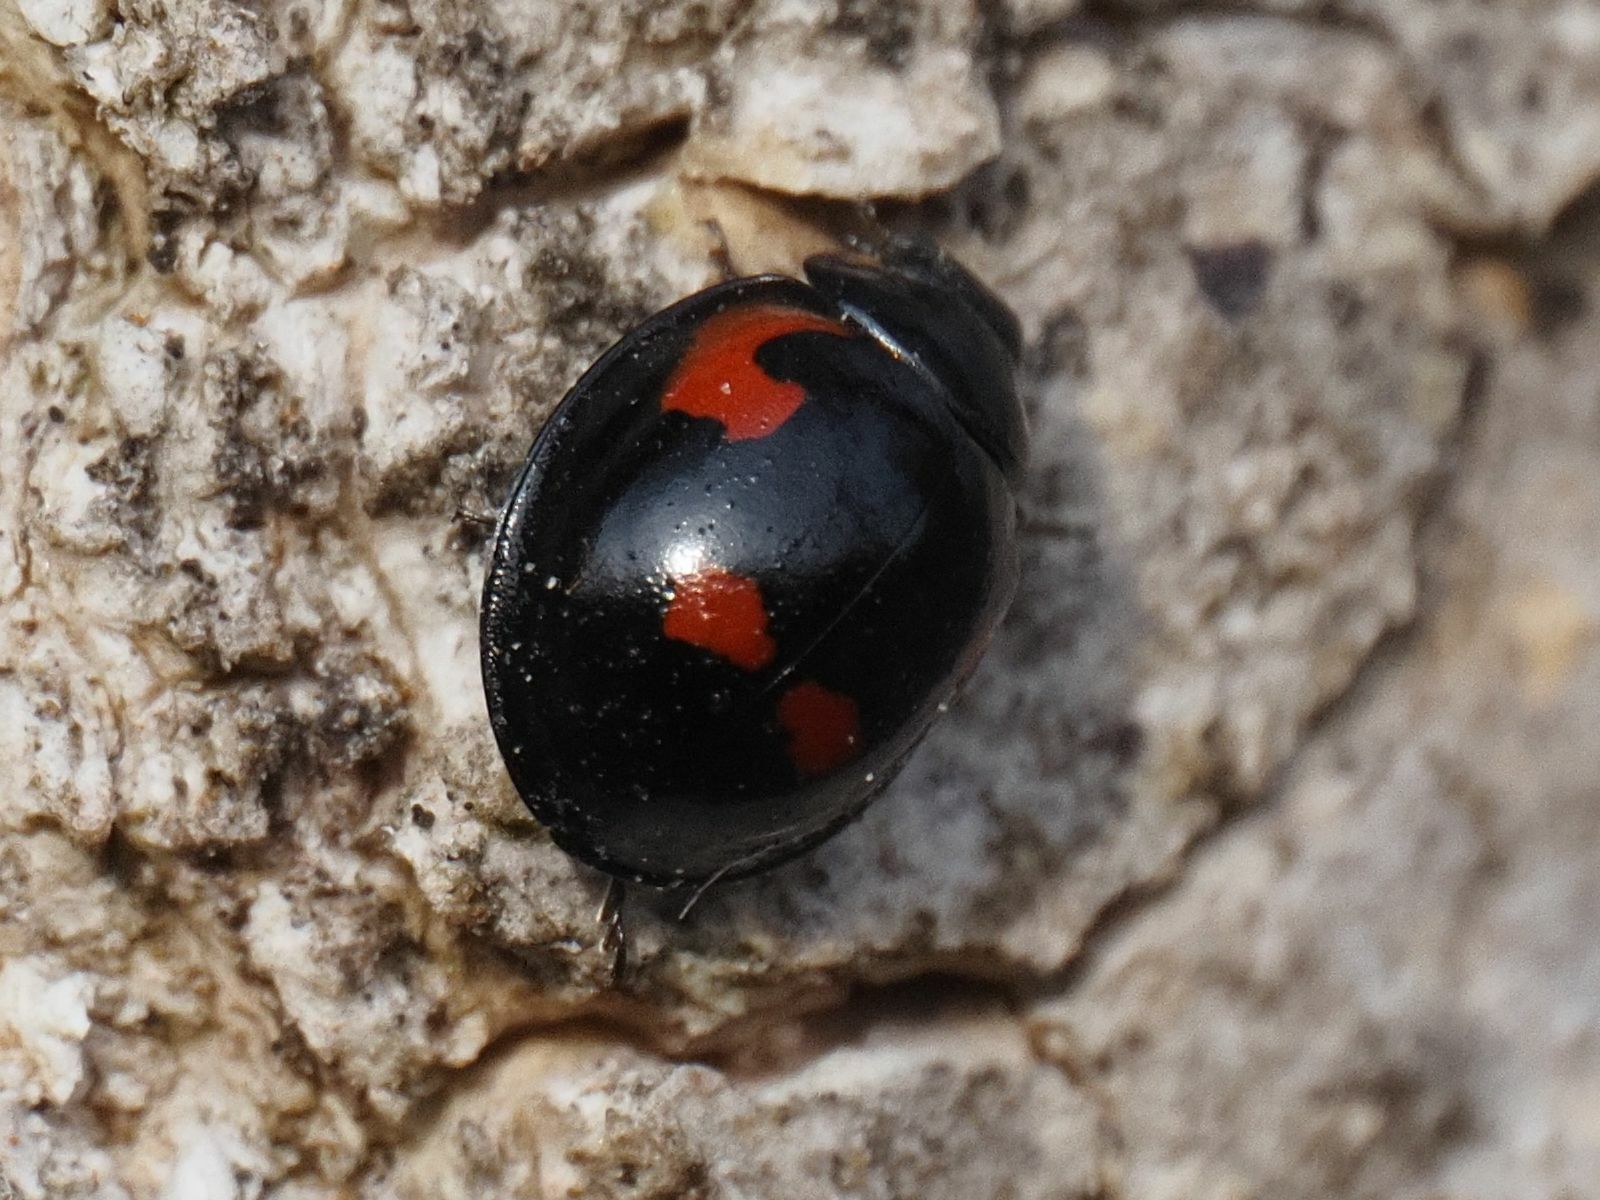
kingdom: Animalia
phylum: Arthropoda
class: Insecta
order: Coleoptera
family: Coccinellidae
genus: Brumus
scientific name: Brumus quadripustulatus
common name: Ladybird beetle
